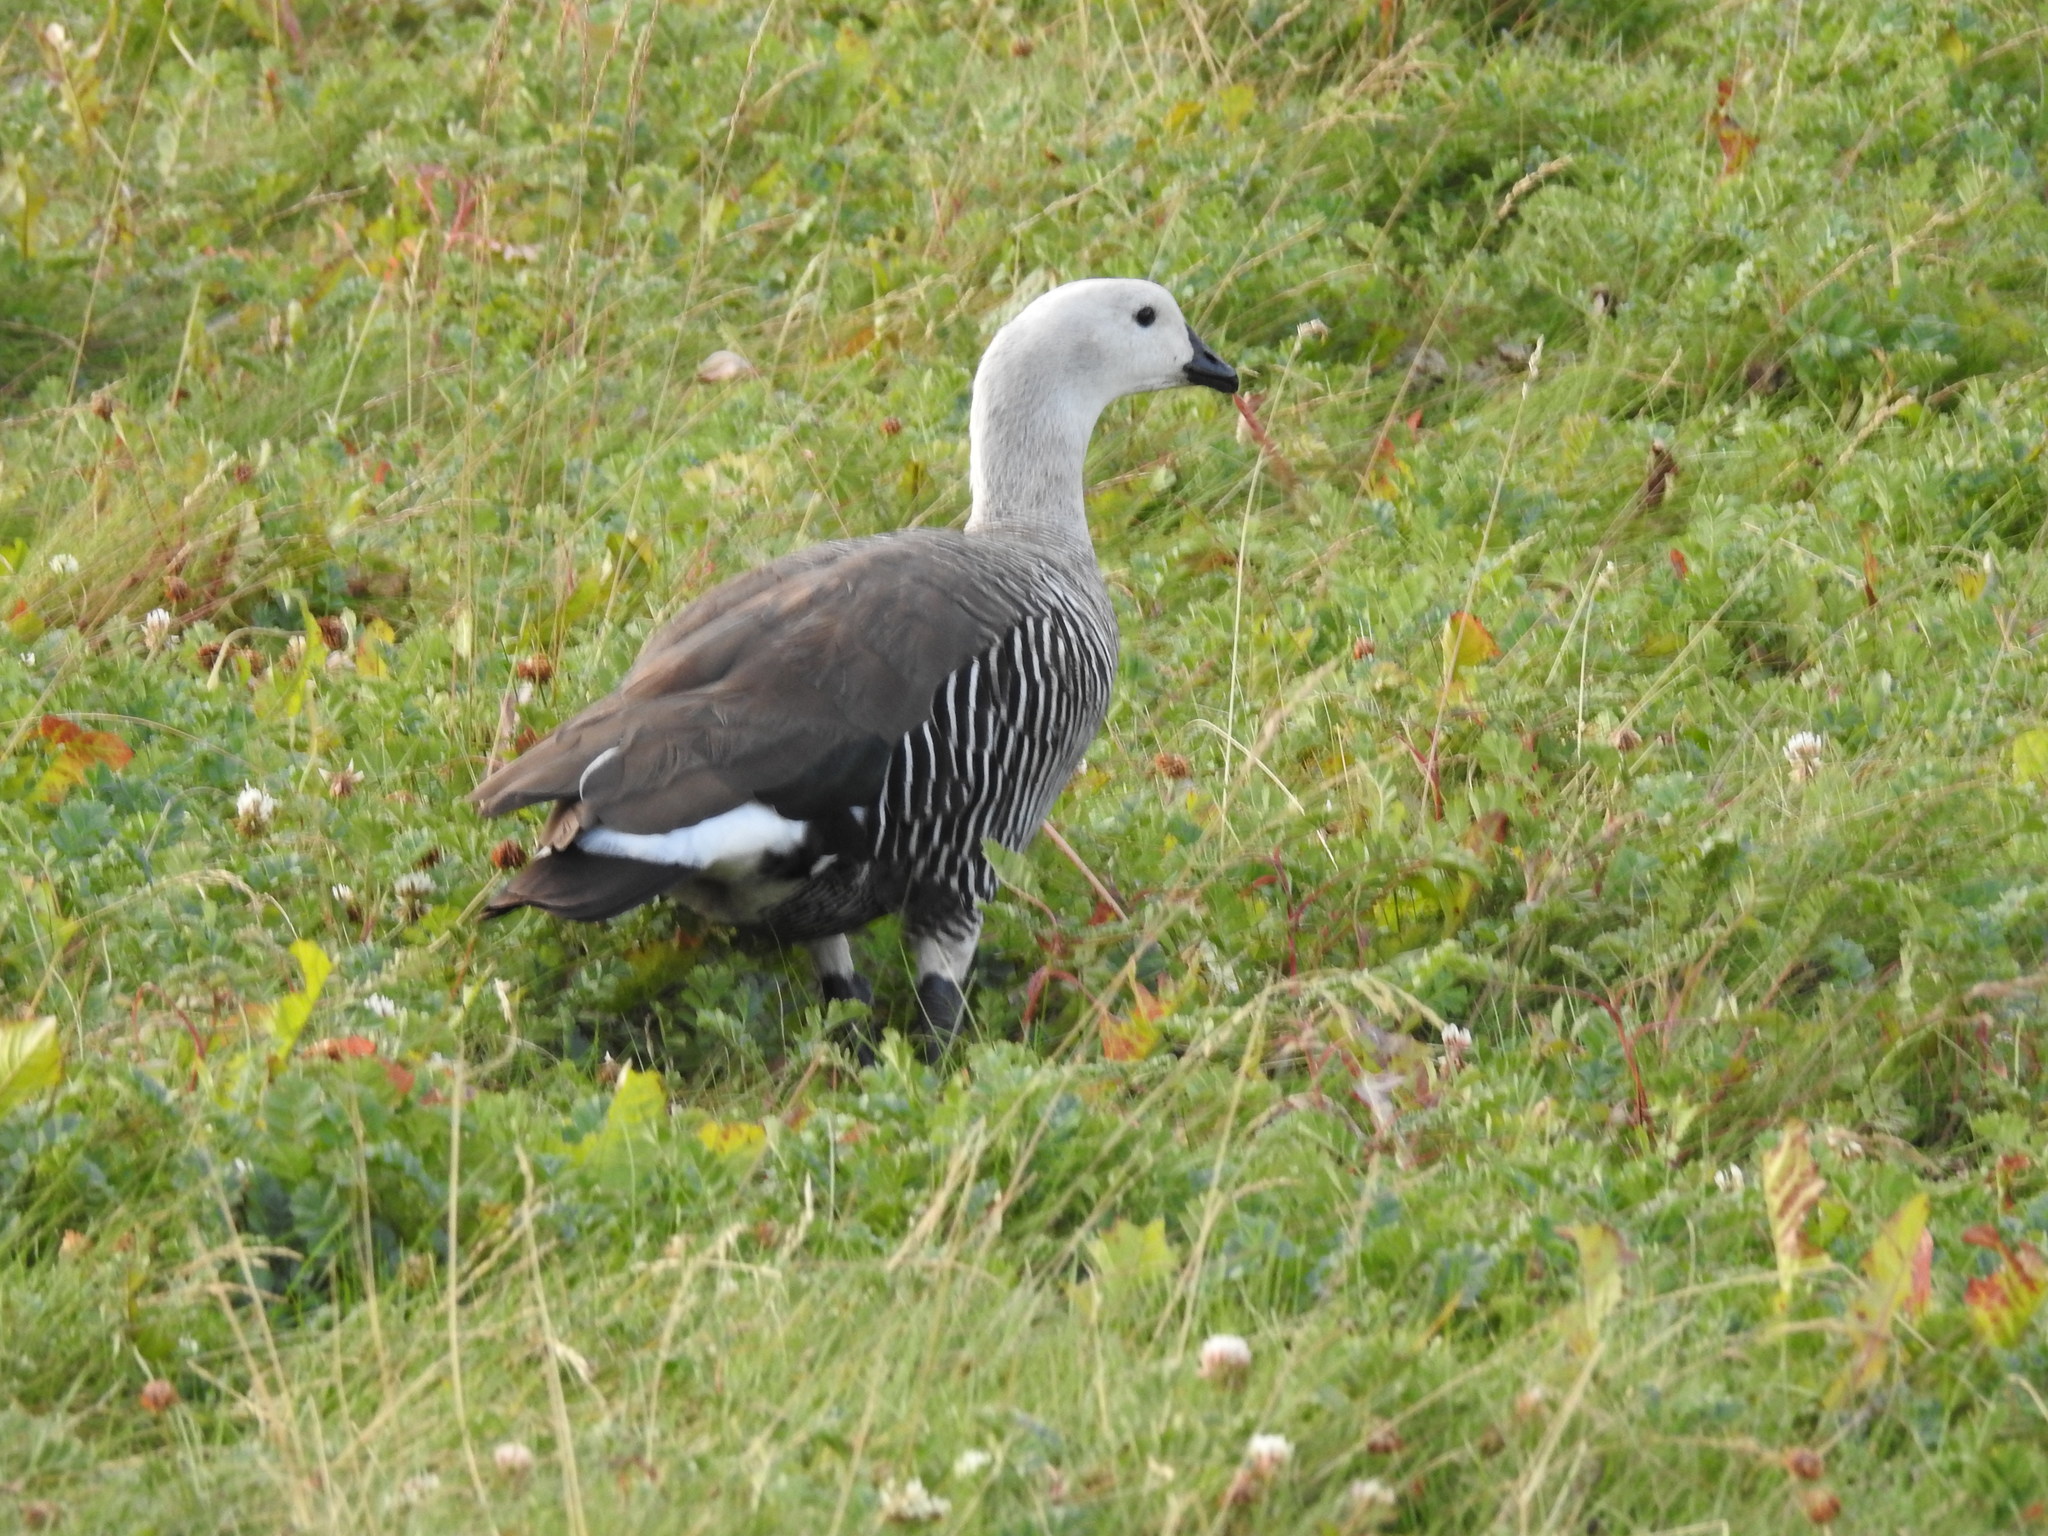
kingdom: Animalia
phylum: Chordata
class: Aves
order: Anseriformes
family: Anatidae
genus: Chloephaga
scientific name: Chloephaga picta
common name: Upland goose
